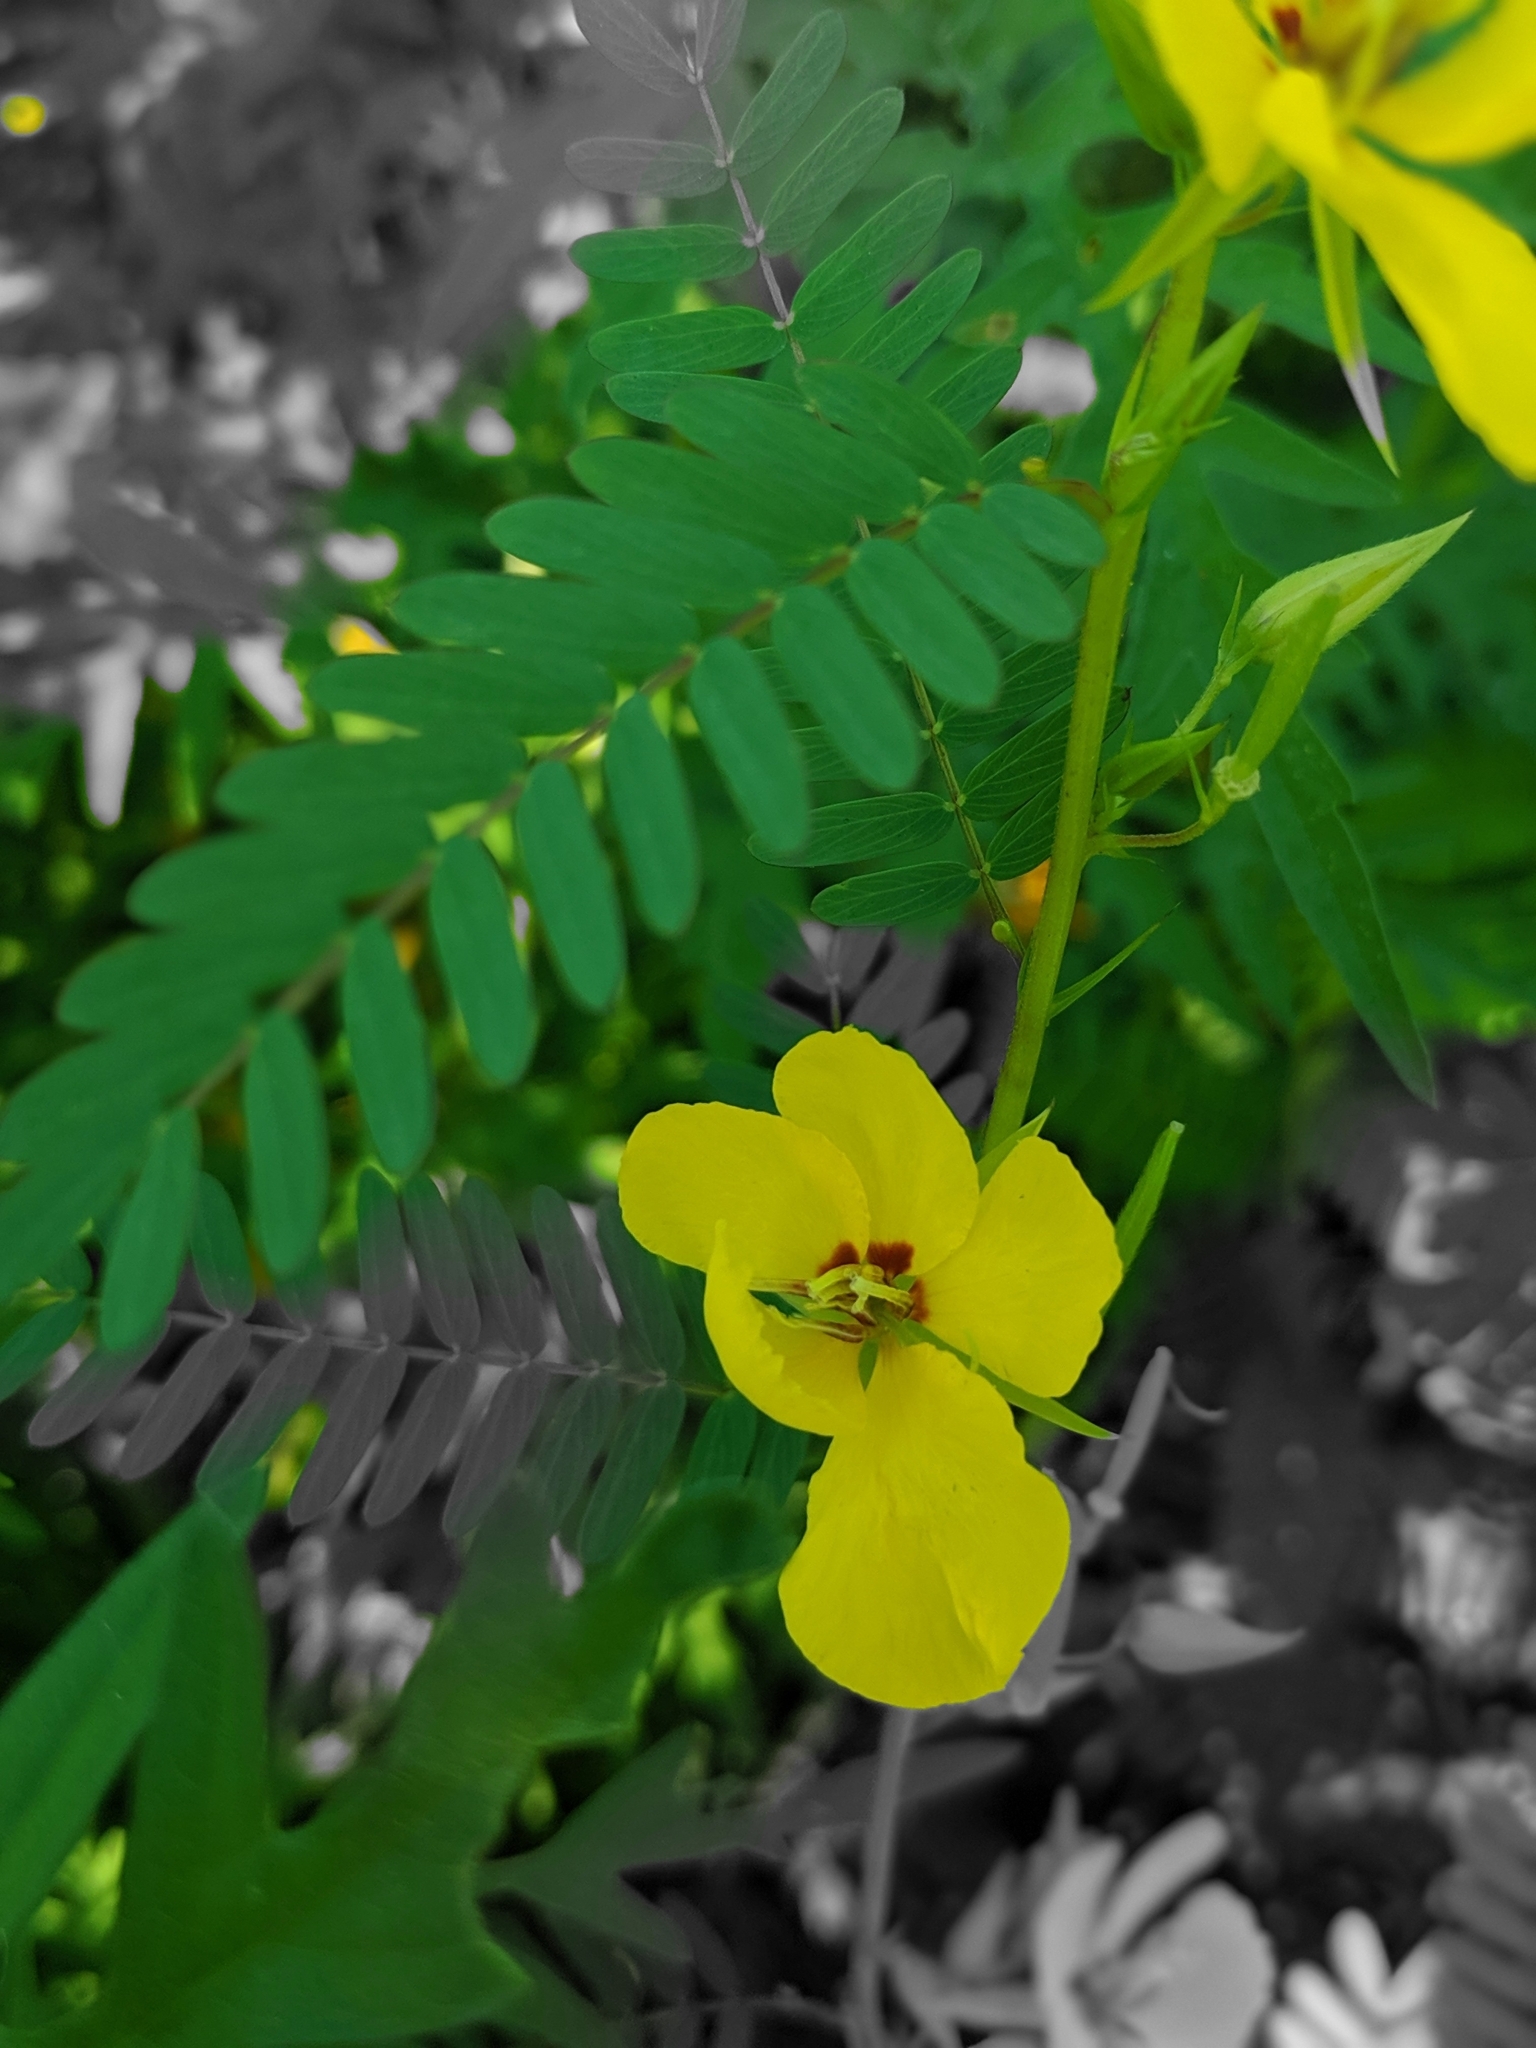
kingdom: Plantae
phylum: Tracheophyta
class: Magnoliopsida
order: Fabales
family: Fabaceae
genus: Chamaecrista
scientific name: Chamaecrista fasciculata
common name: Golden cassia
